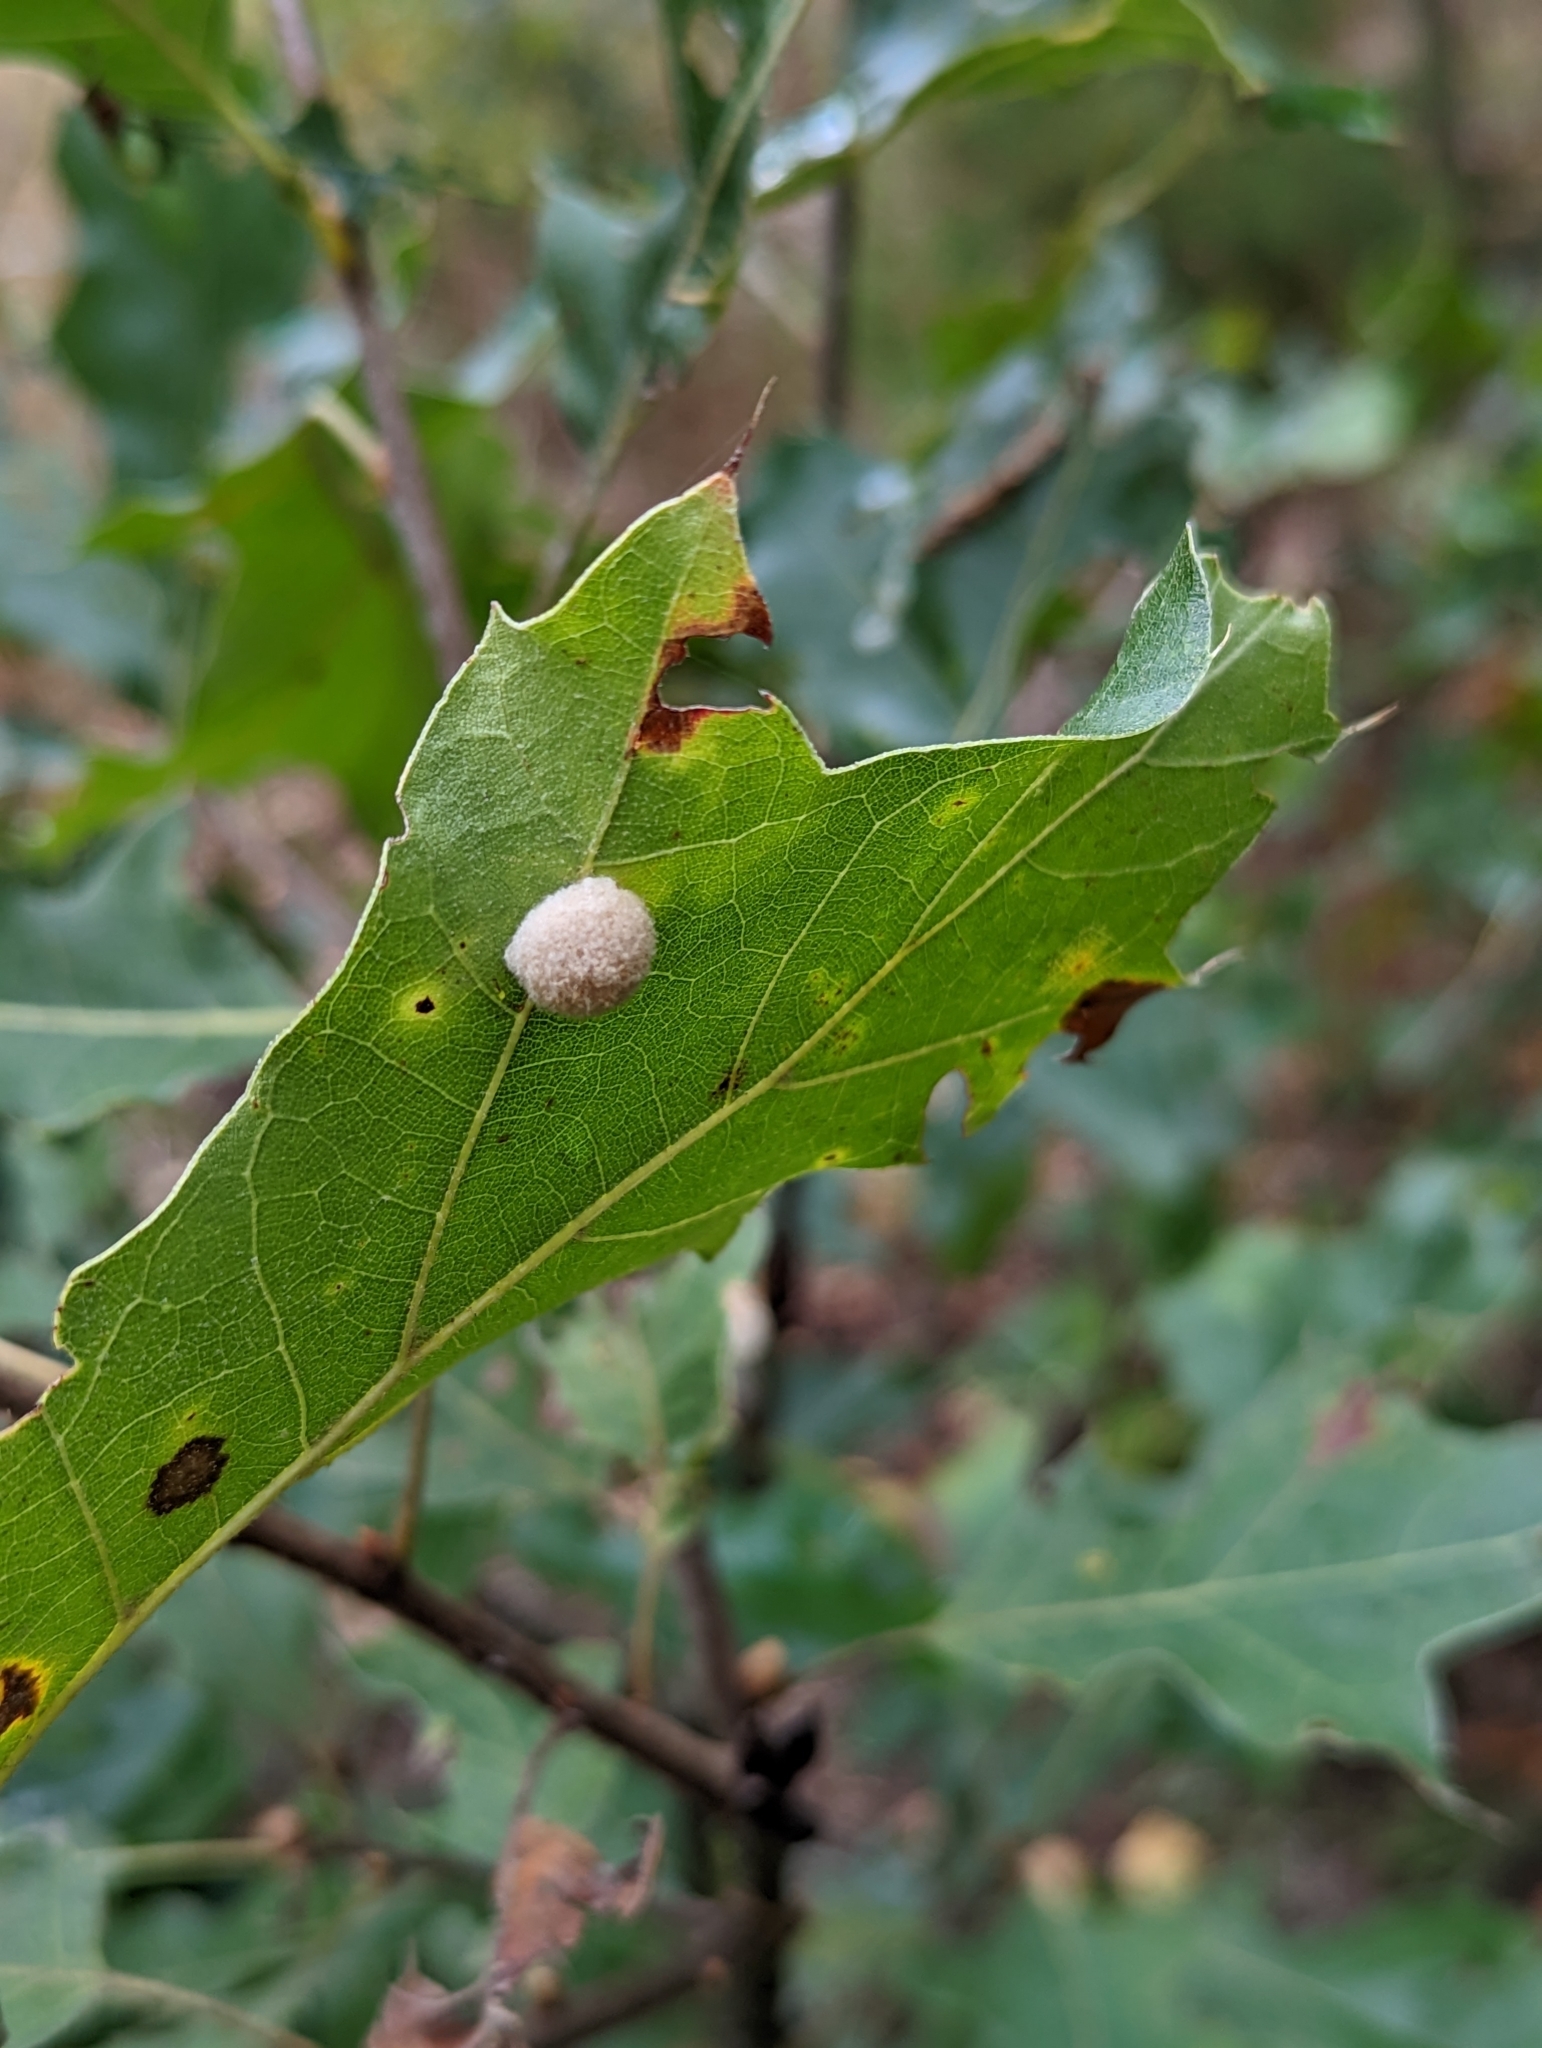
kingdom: Animalia
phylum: Arthropoda
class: Insecta
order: Hymenoptera
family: Cynipidae
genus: Callirhytis
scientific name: Callirhytis
